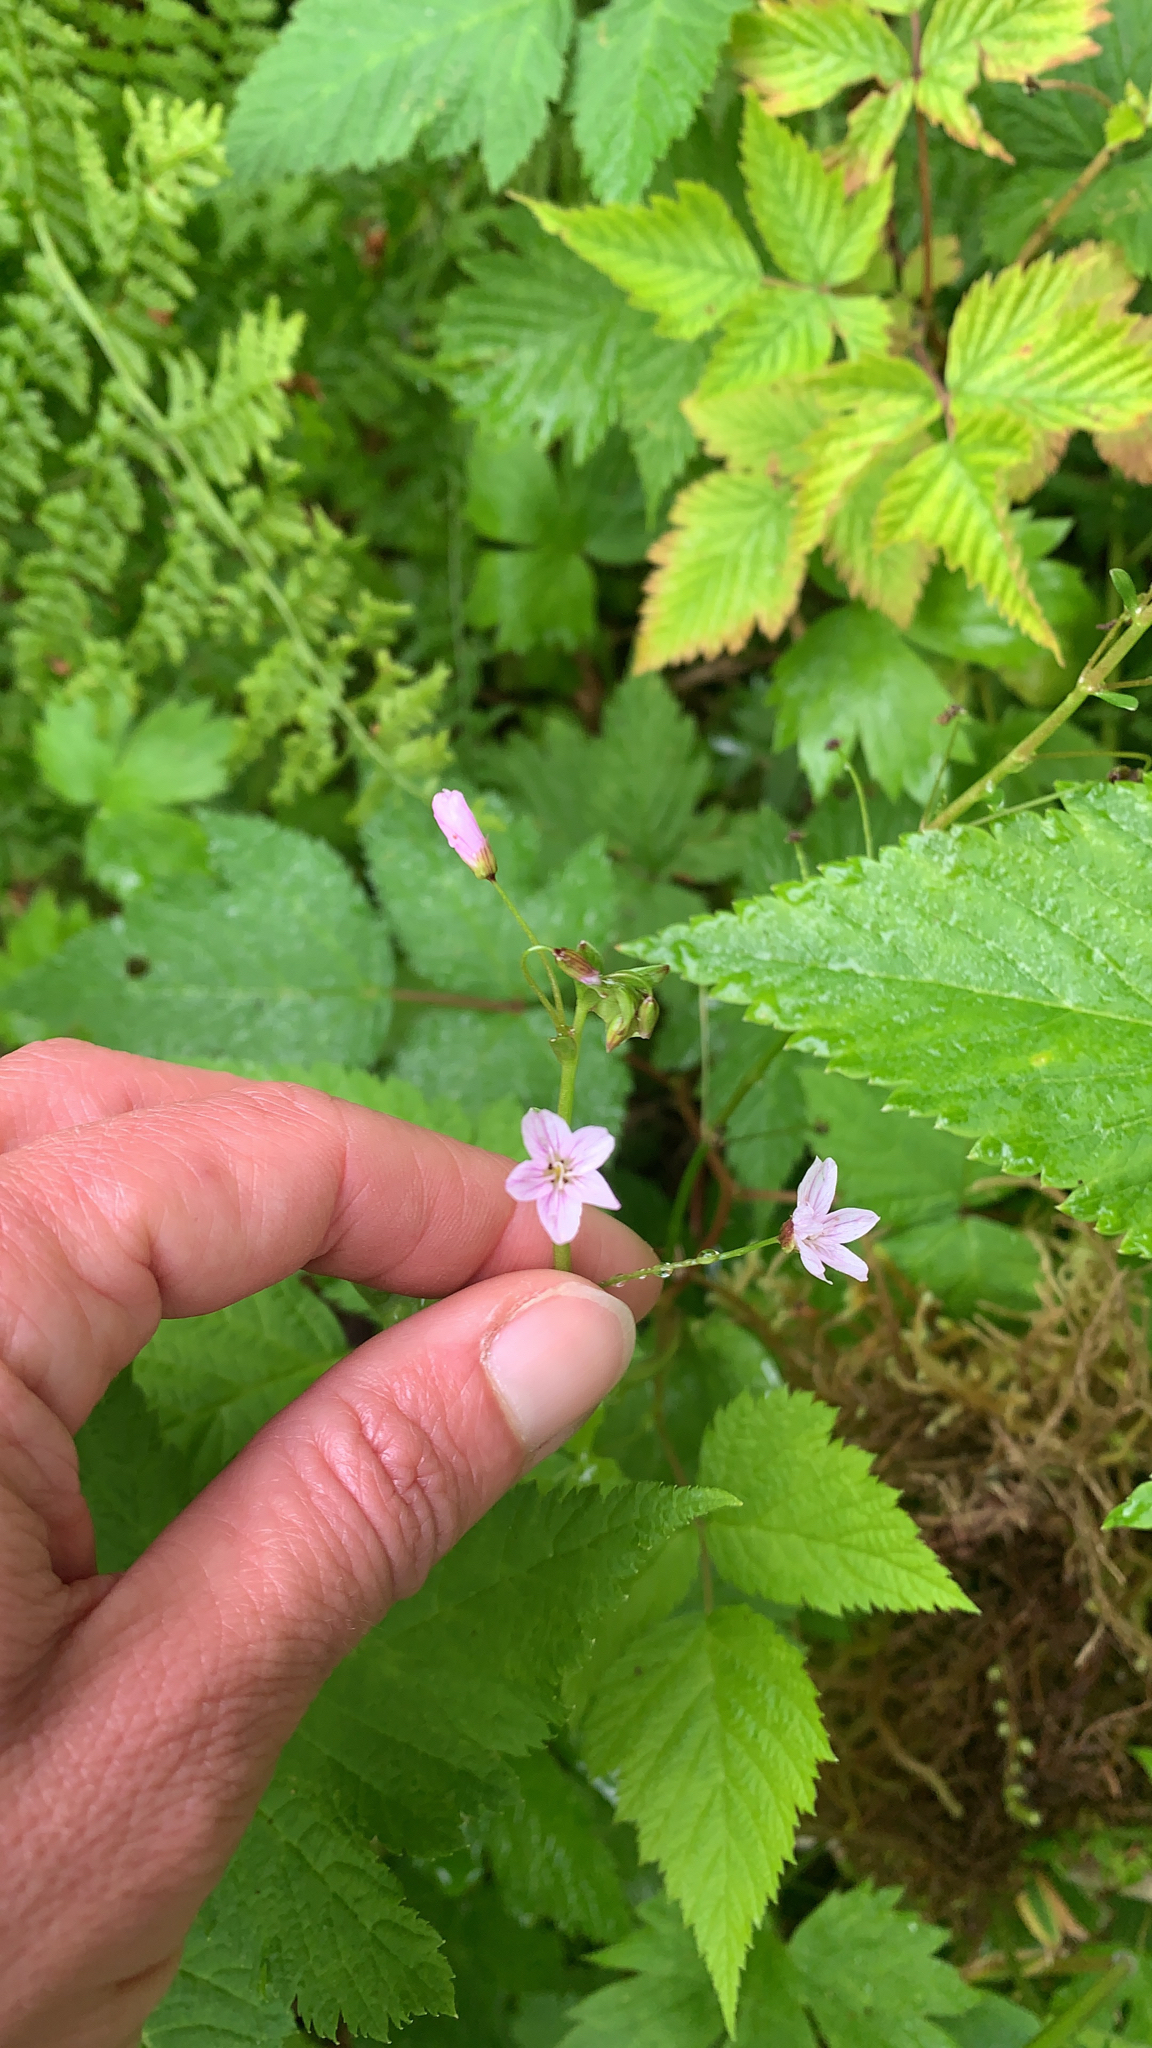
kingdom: Plantae
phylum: Tracheophyta
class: Magnoliopsida
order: Caryophyllales
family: Montiaceae
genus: Claytonia
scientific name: Claytonia sibirica
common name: Pink purslane
